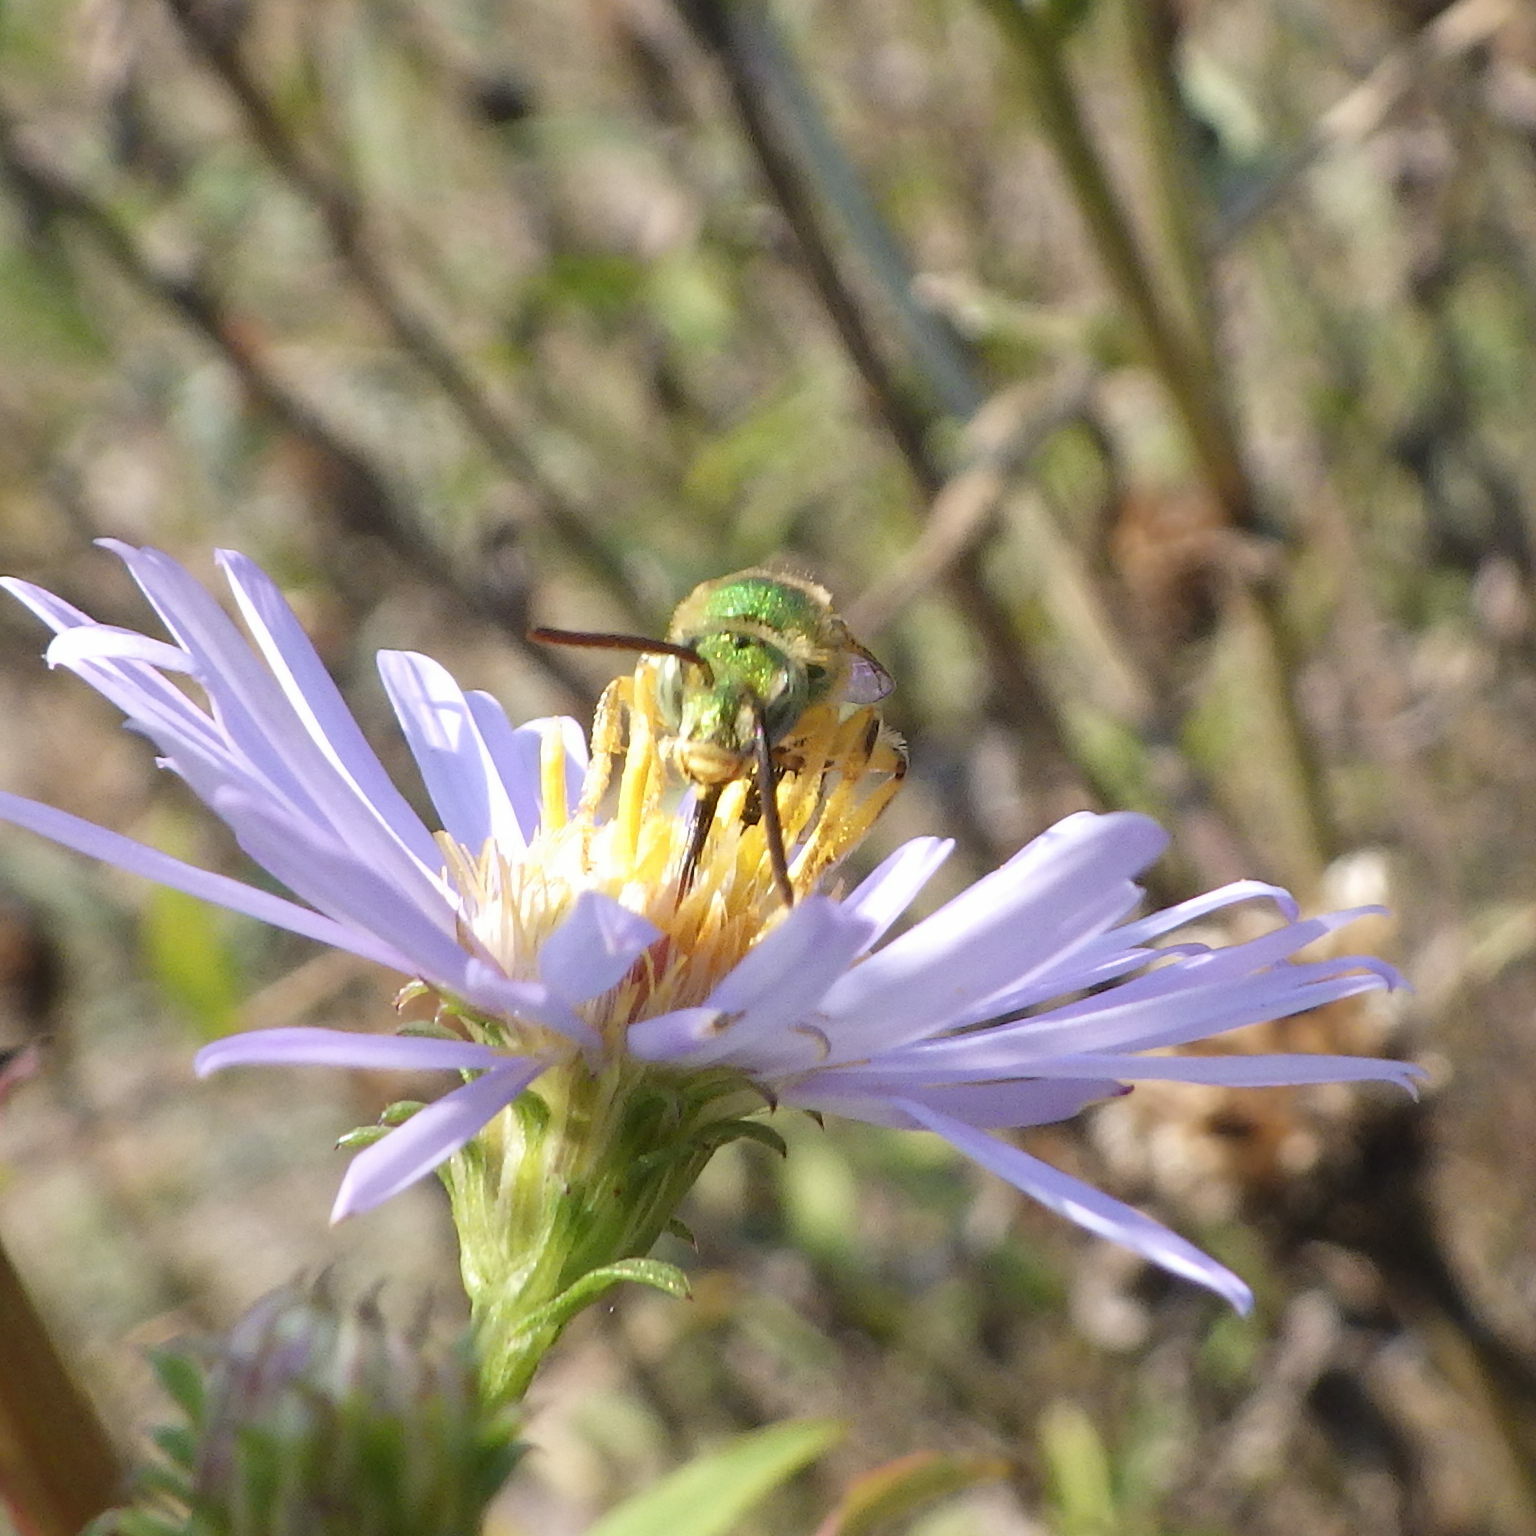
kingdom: Animalia
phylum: Arthropoda
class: Insecta
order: Hymenoptera
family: Halictidae
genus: Agapostemon
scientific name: Agapostemon virescens
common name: Bicolored striped sweat bee
